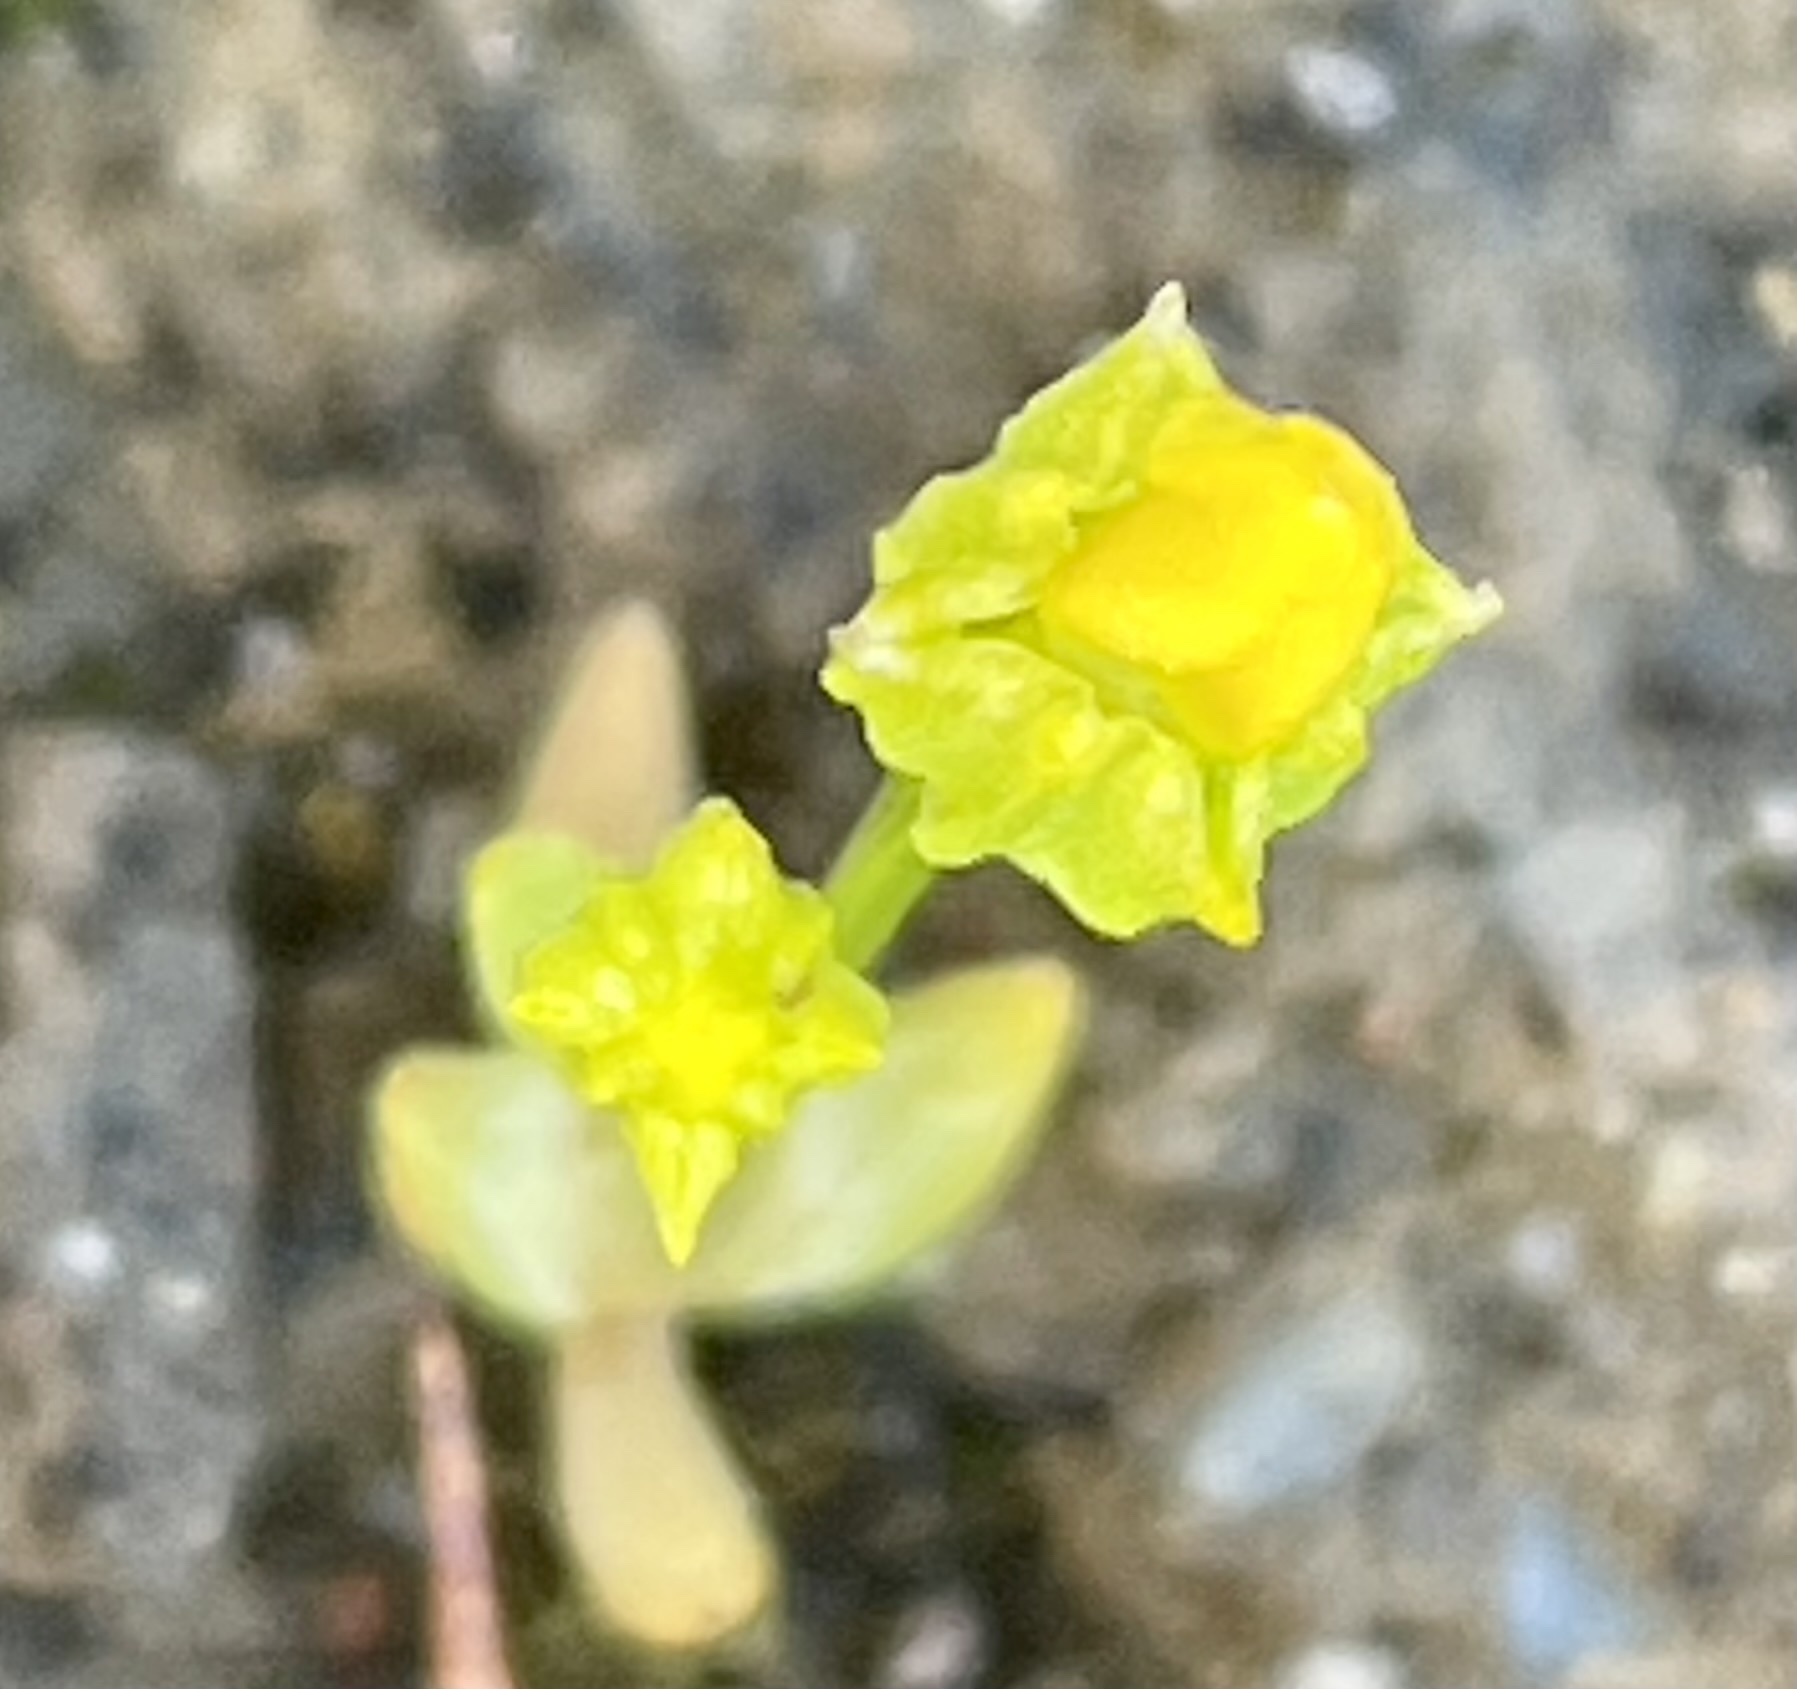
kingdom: Plantae
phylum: Tracheophyta
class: Magnoliopsida
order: Gentianales
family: Gentianaceae
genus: Microcala
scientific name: Microcala quadrangularis
